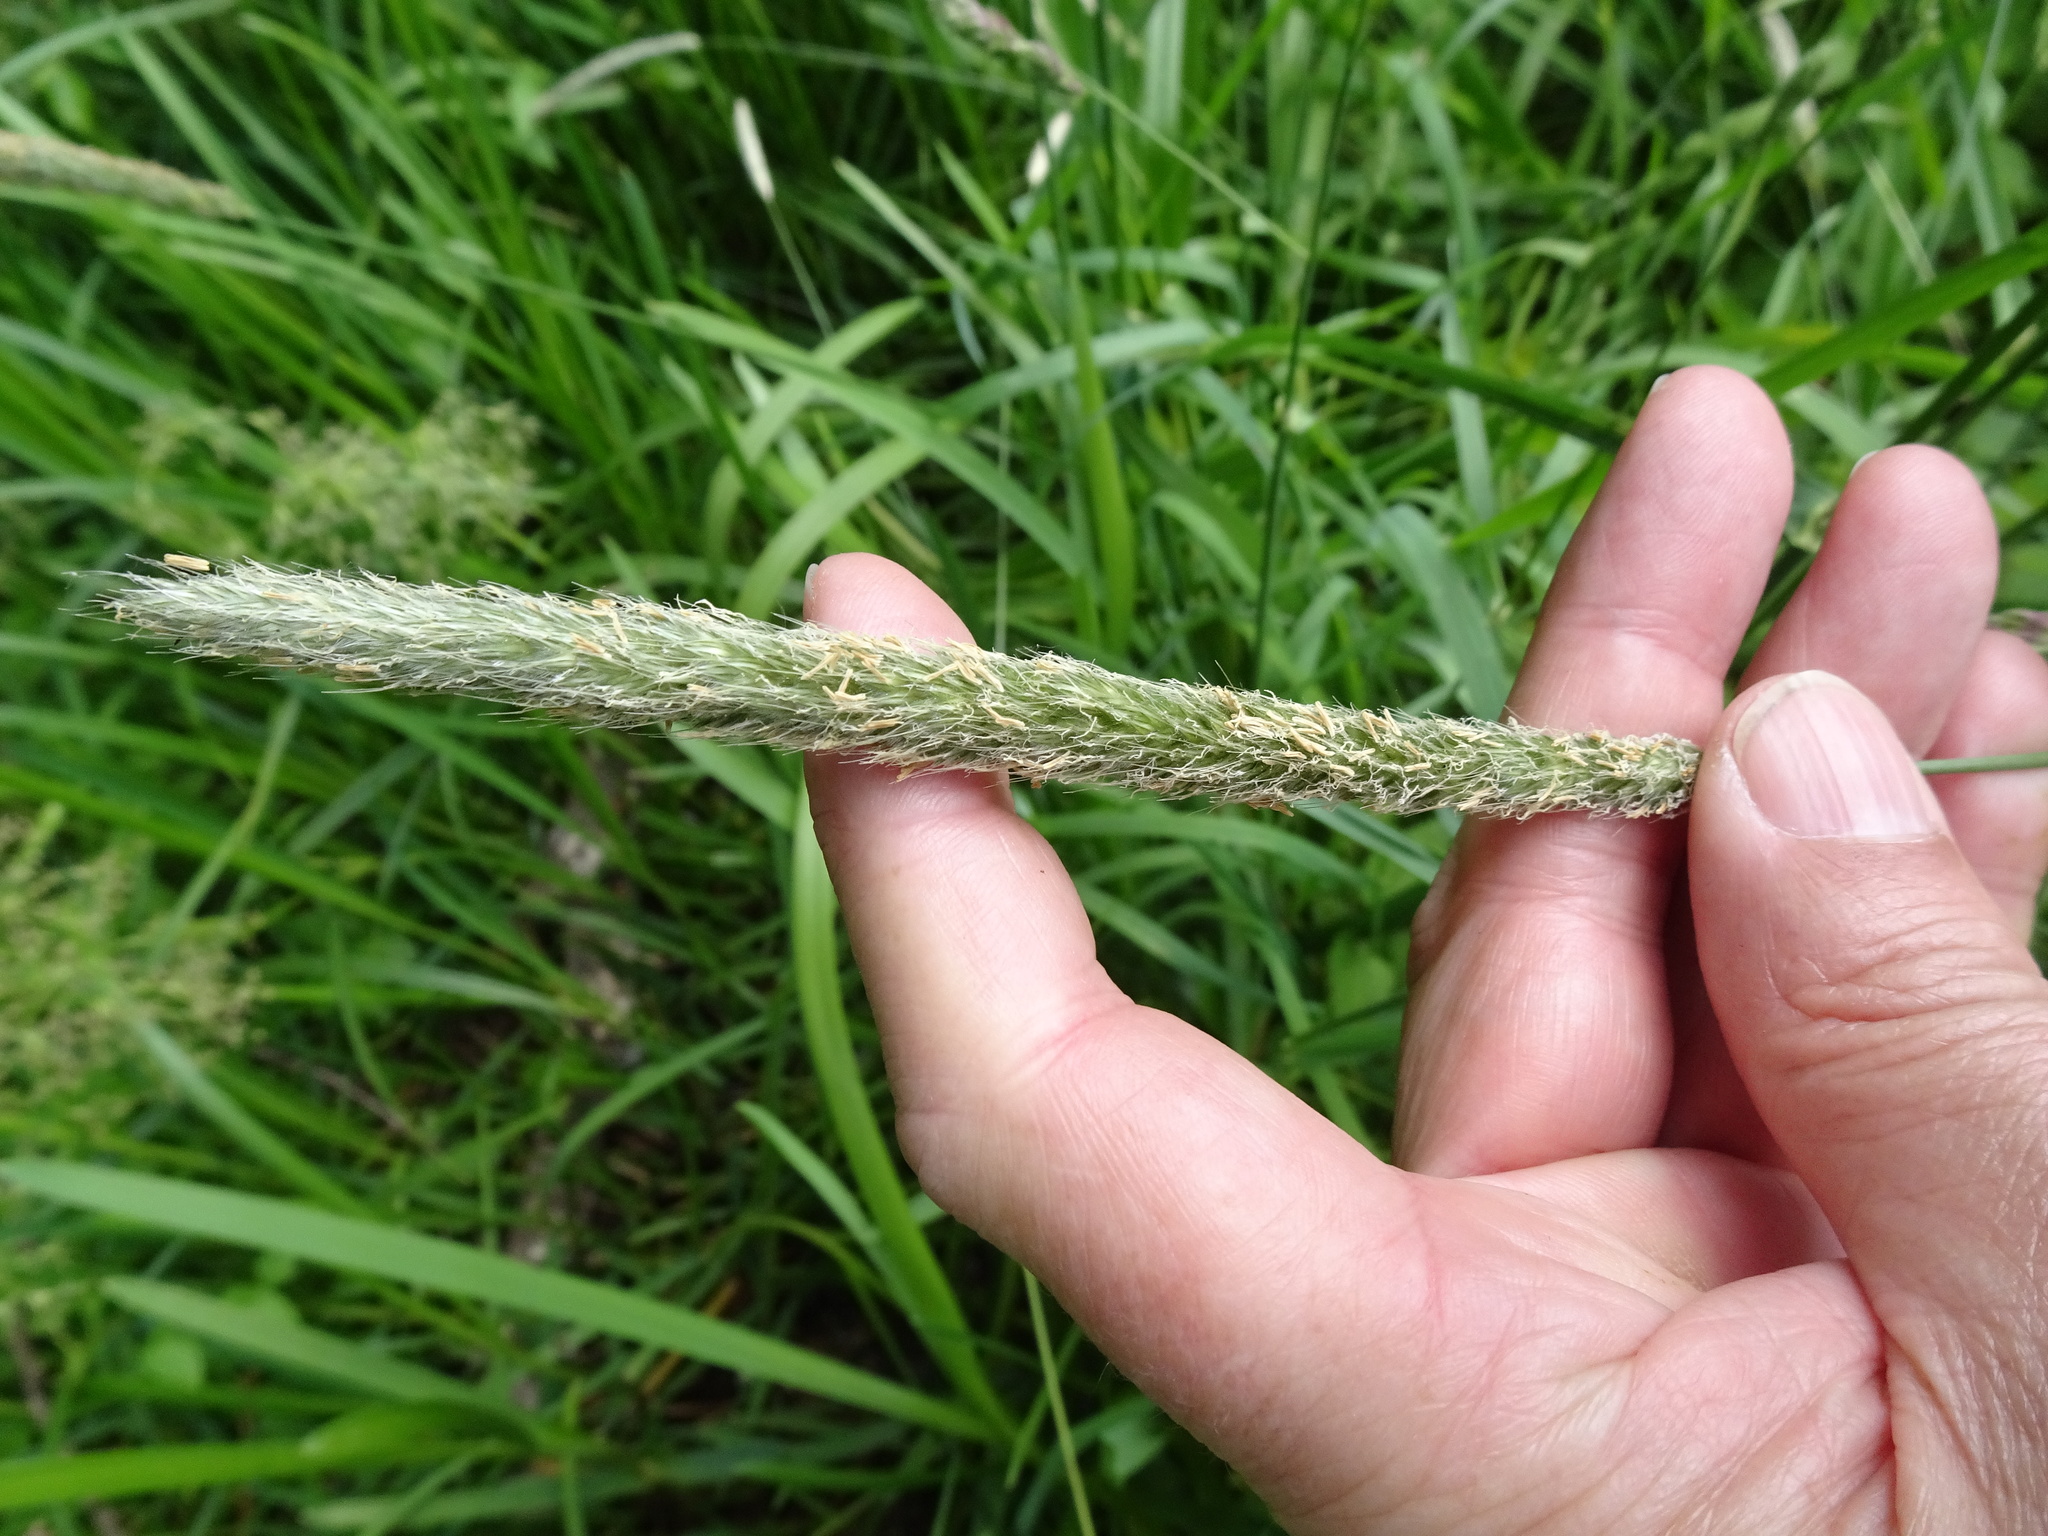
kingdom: Plantae
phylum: Tracheophyta
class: Liliopsida
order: Poales
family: Poaceae
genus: Alopecurus
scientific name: Alopecurus pratensis
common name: Meadow foxtail
